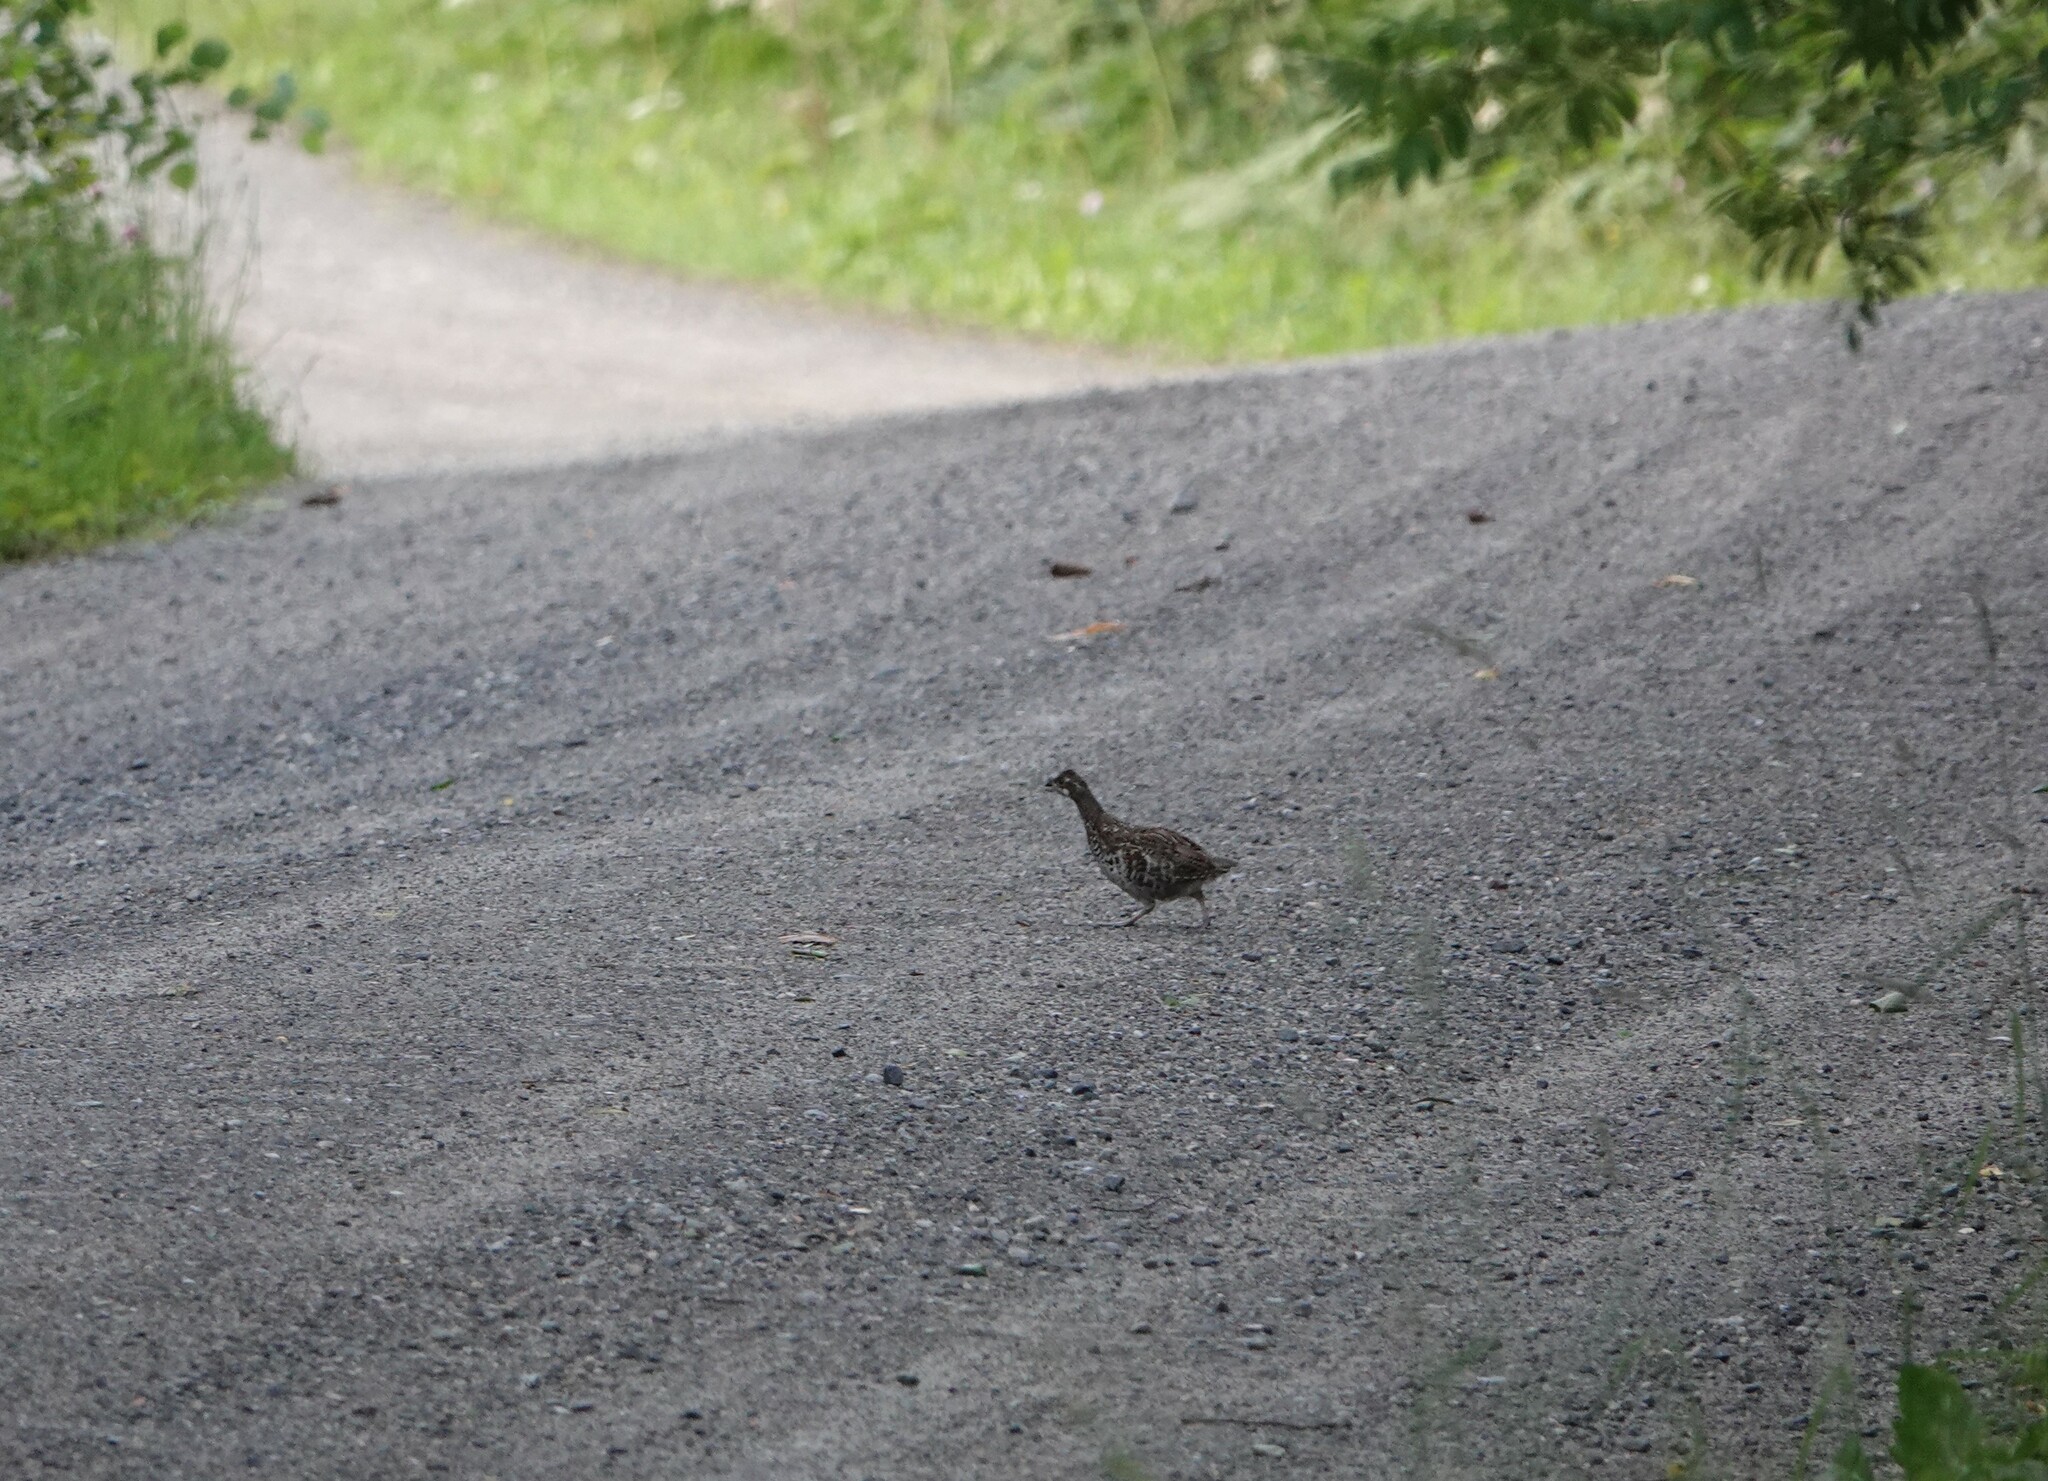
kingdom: Animalia
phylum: Chordata
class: Aves
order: Galliformes
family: Phasianidae
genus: Tetrastes
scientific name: Tetrastes bonasia
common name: Hazel grouse
